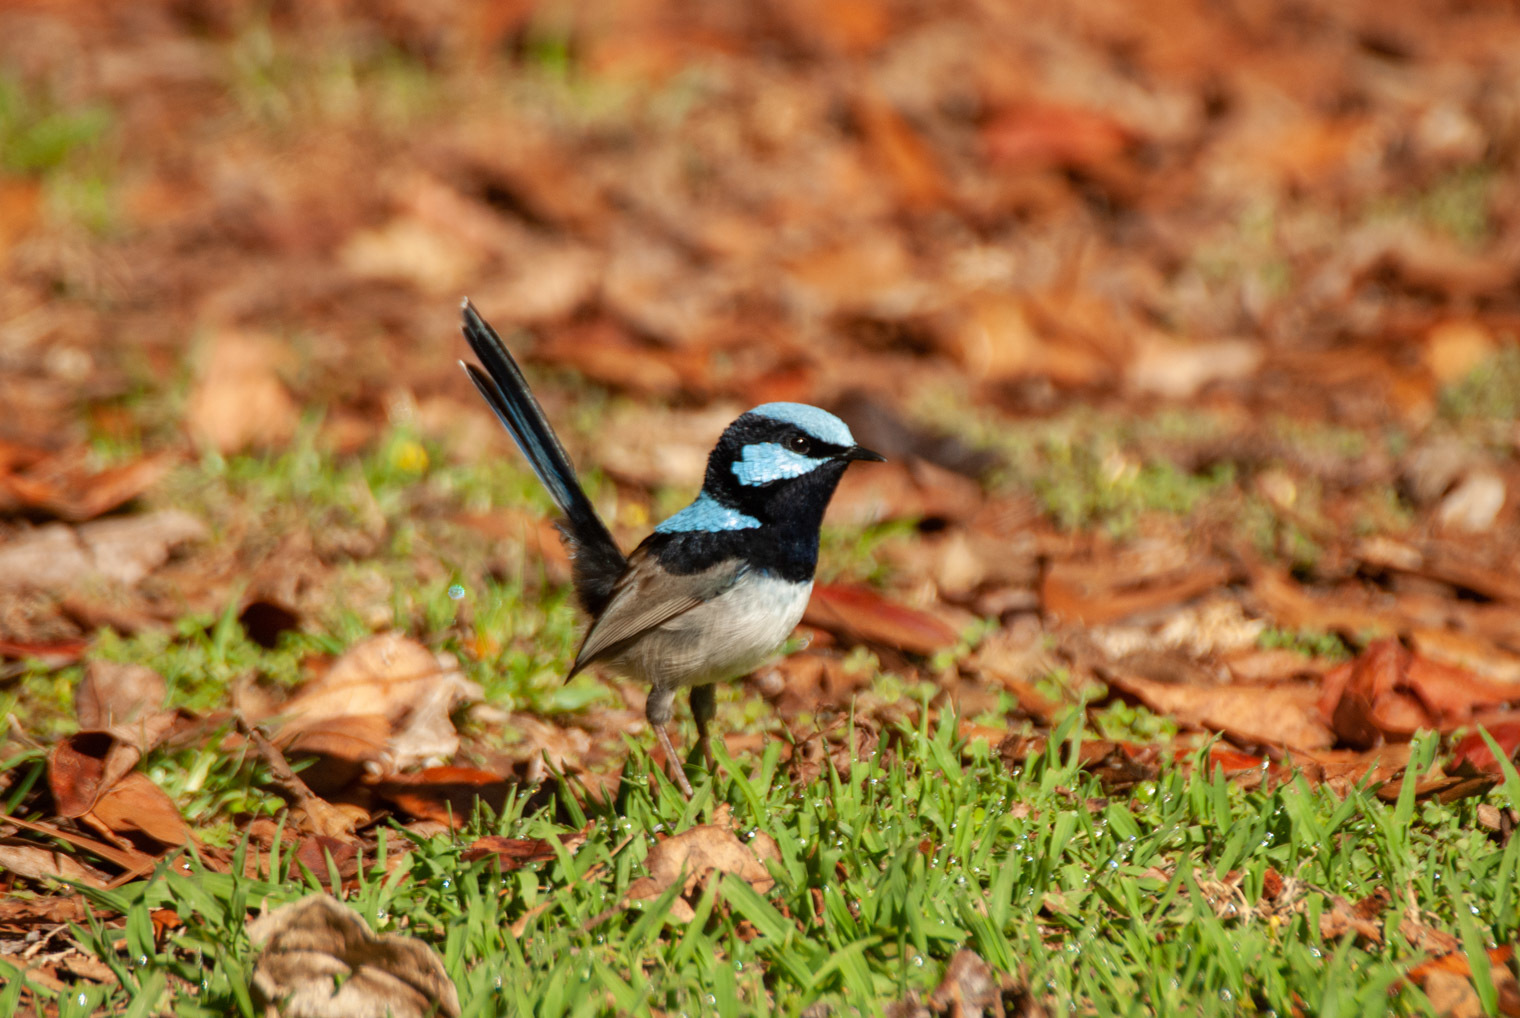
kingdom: Animalia
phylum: Chordata
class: Aves
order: Passeriformes
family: Maluridae
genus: Malurus
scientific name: Malurus cyaneus
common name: Superb fairywren
